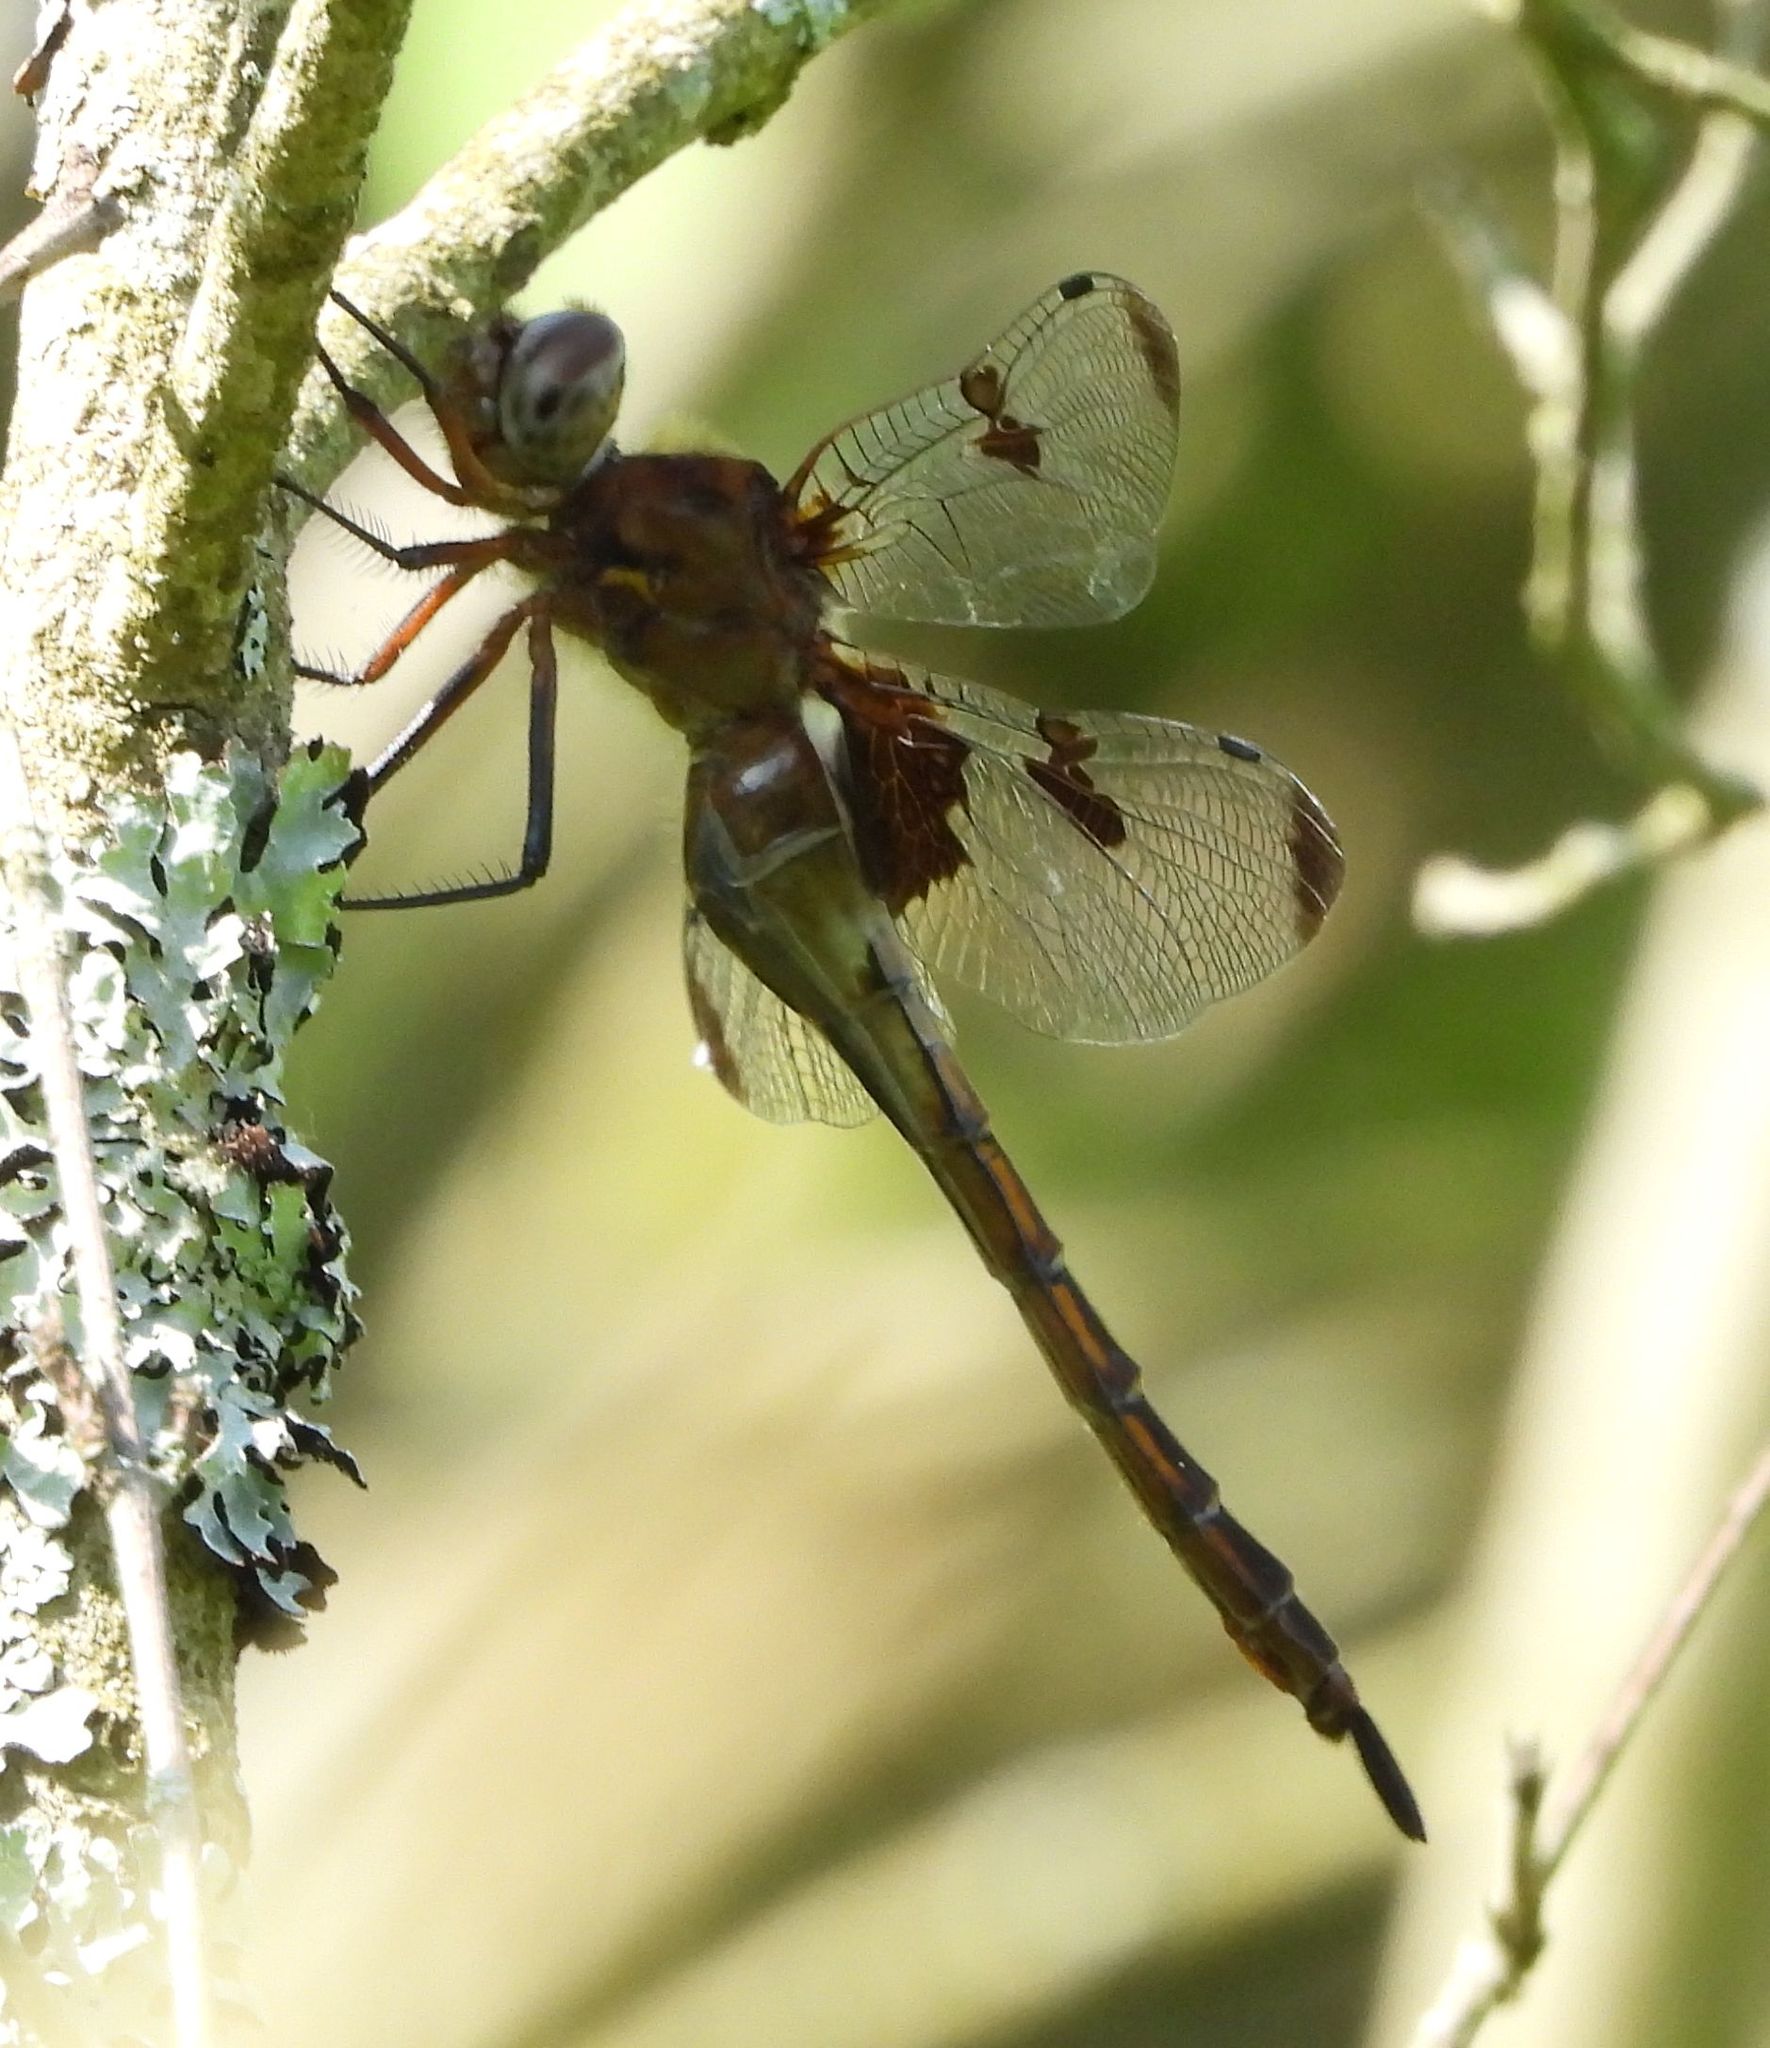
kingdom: Animalia
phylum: Arthropoda
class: Insecta
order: Odonata
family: Corduliidae
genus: Epitheca
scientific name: Epitheca princeps
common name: Prince baskettail
